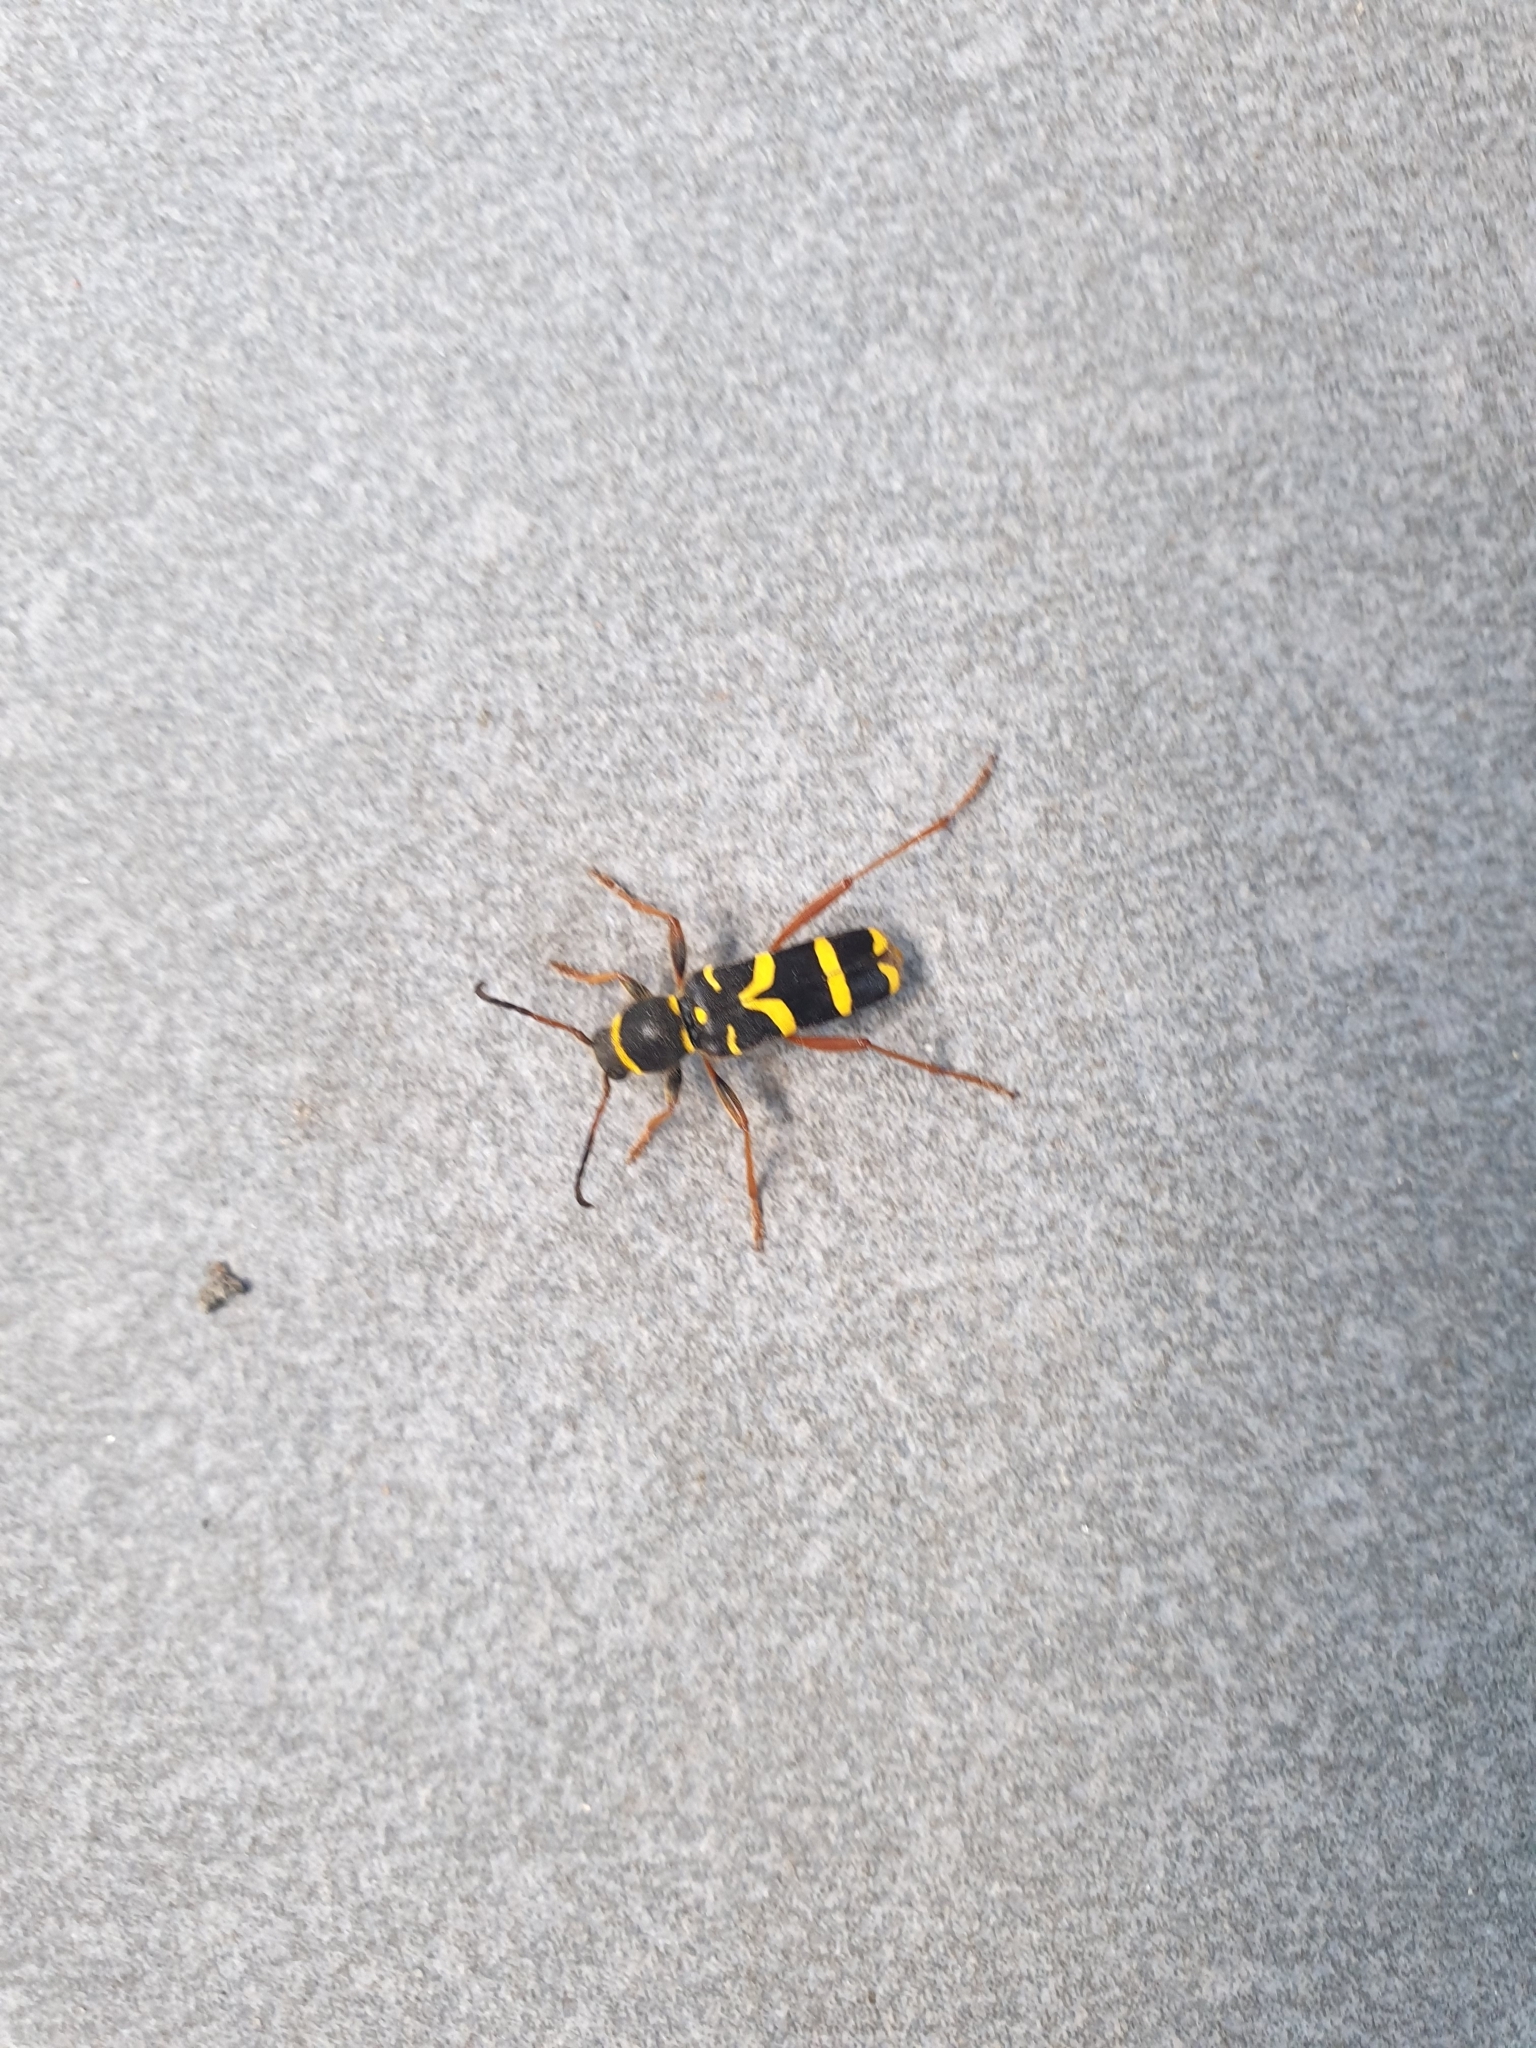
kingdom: Animalia
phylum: Arthropoda
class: Insecta
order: Coleoptera
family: Cerambycidae
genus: Clytus
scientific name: Clytus arietis
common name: Wasp beetle
